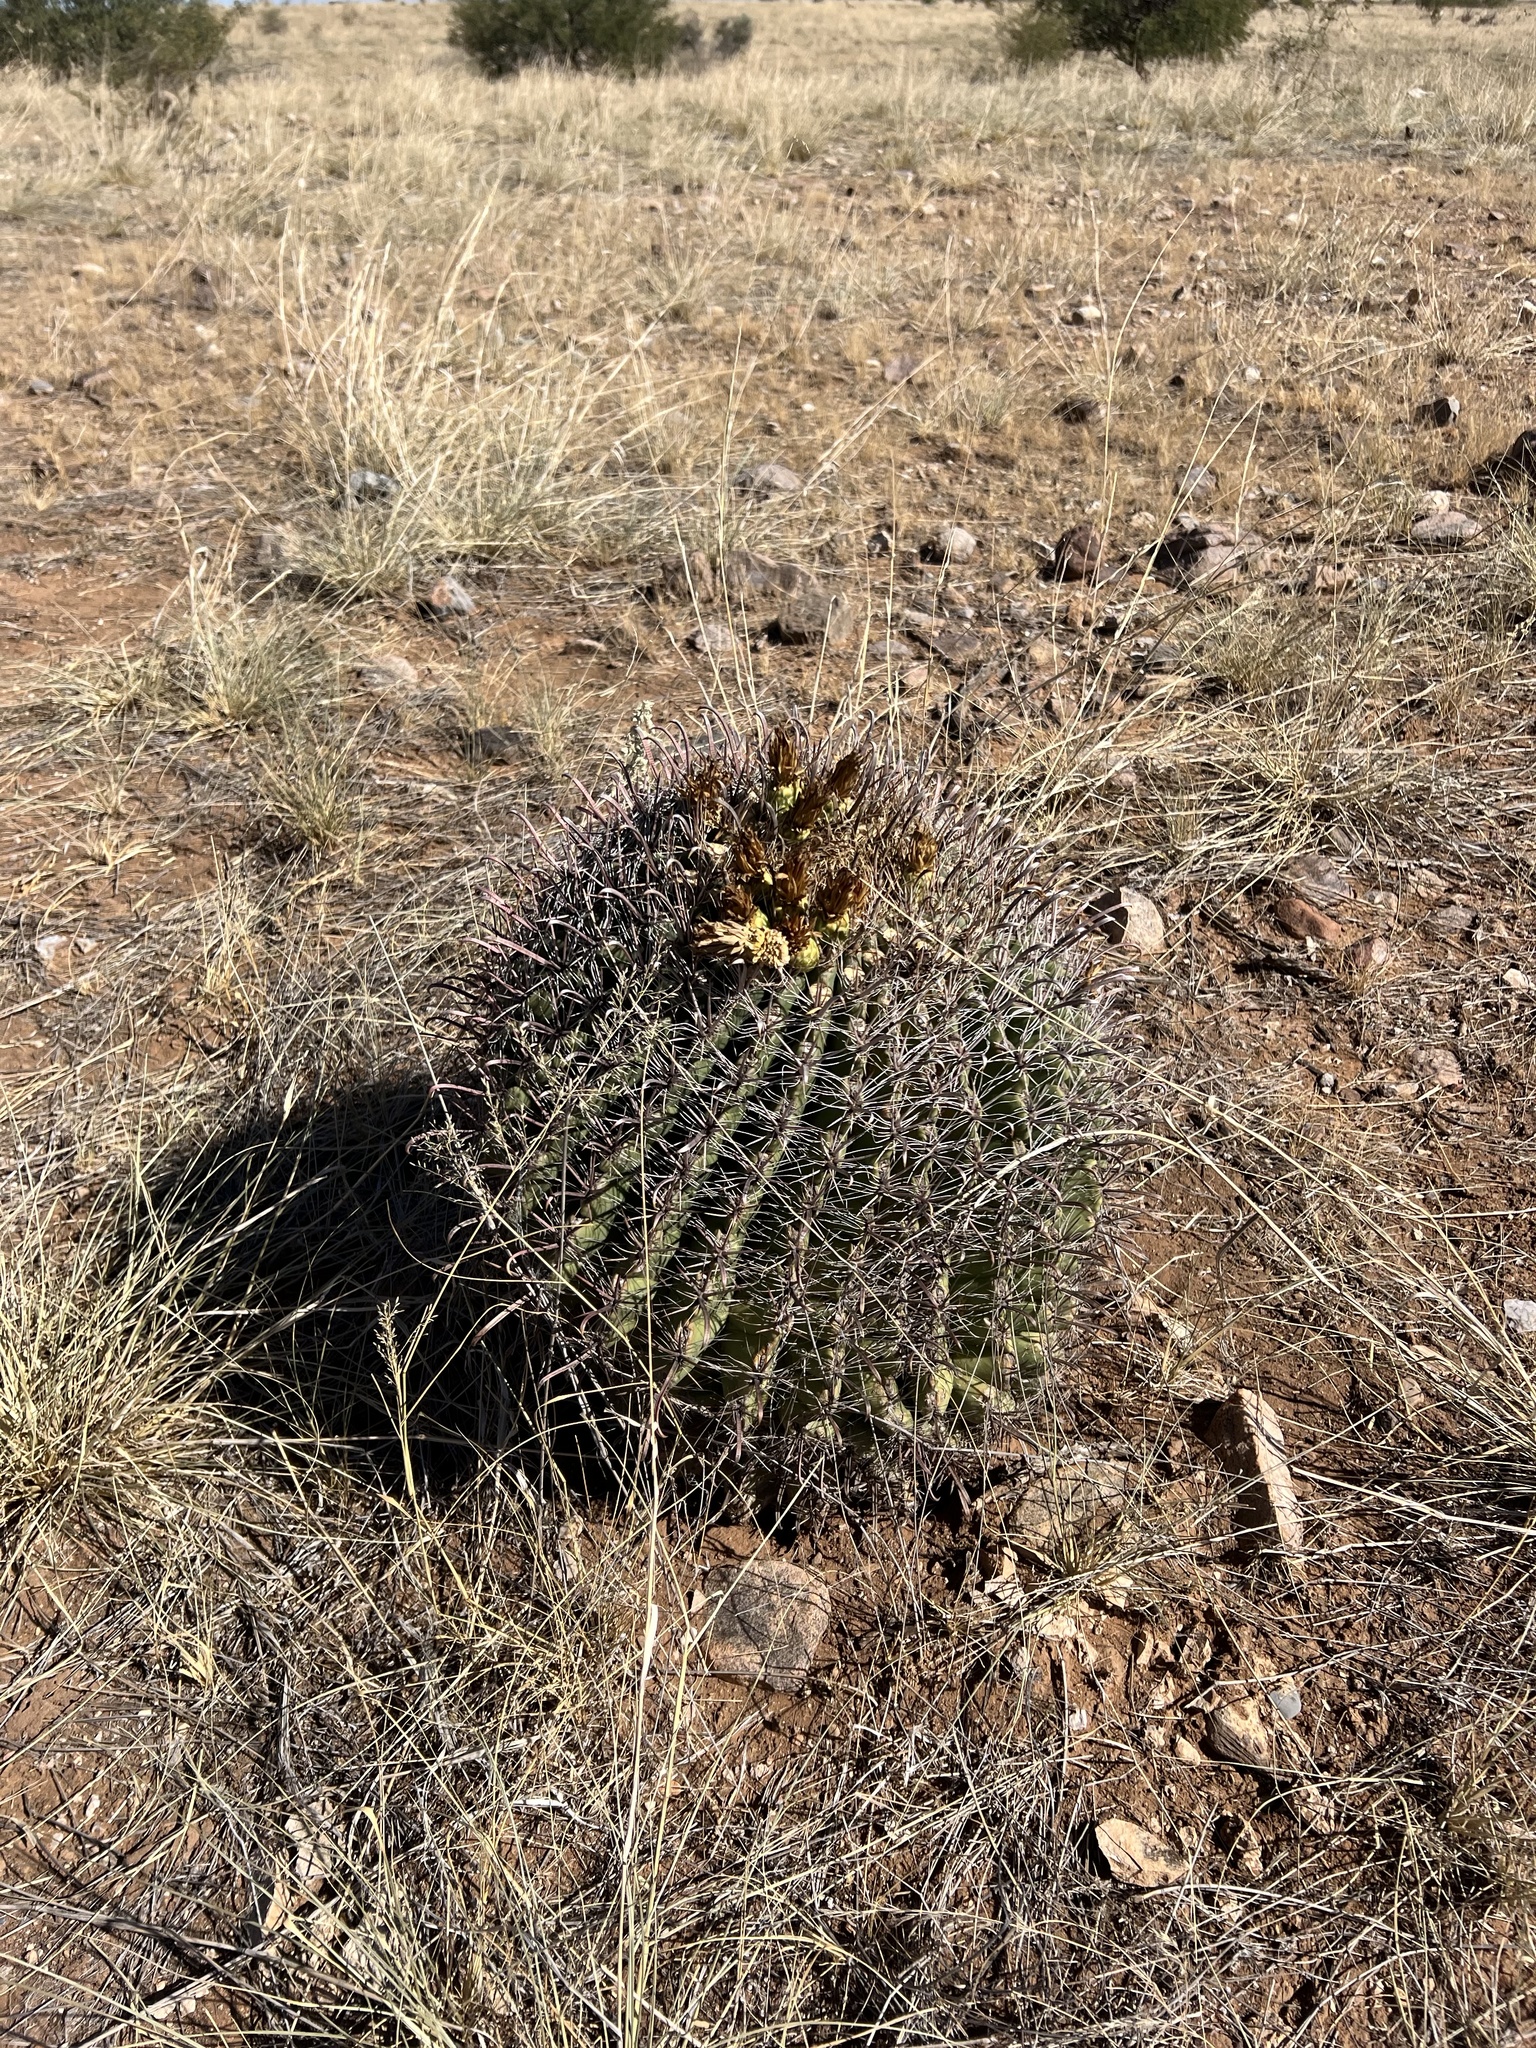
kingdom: Plantae
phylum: Tracheophyta
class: Magnoliopsida
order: Caryophyllales
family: Cactaceae
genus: Ferocactus
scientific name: Ferocactus wislizeni
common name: Candy barrel cactus
